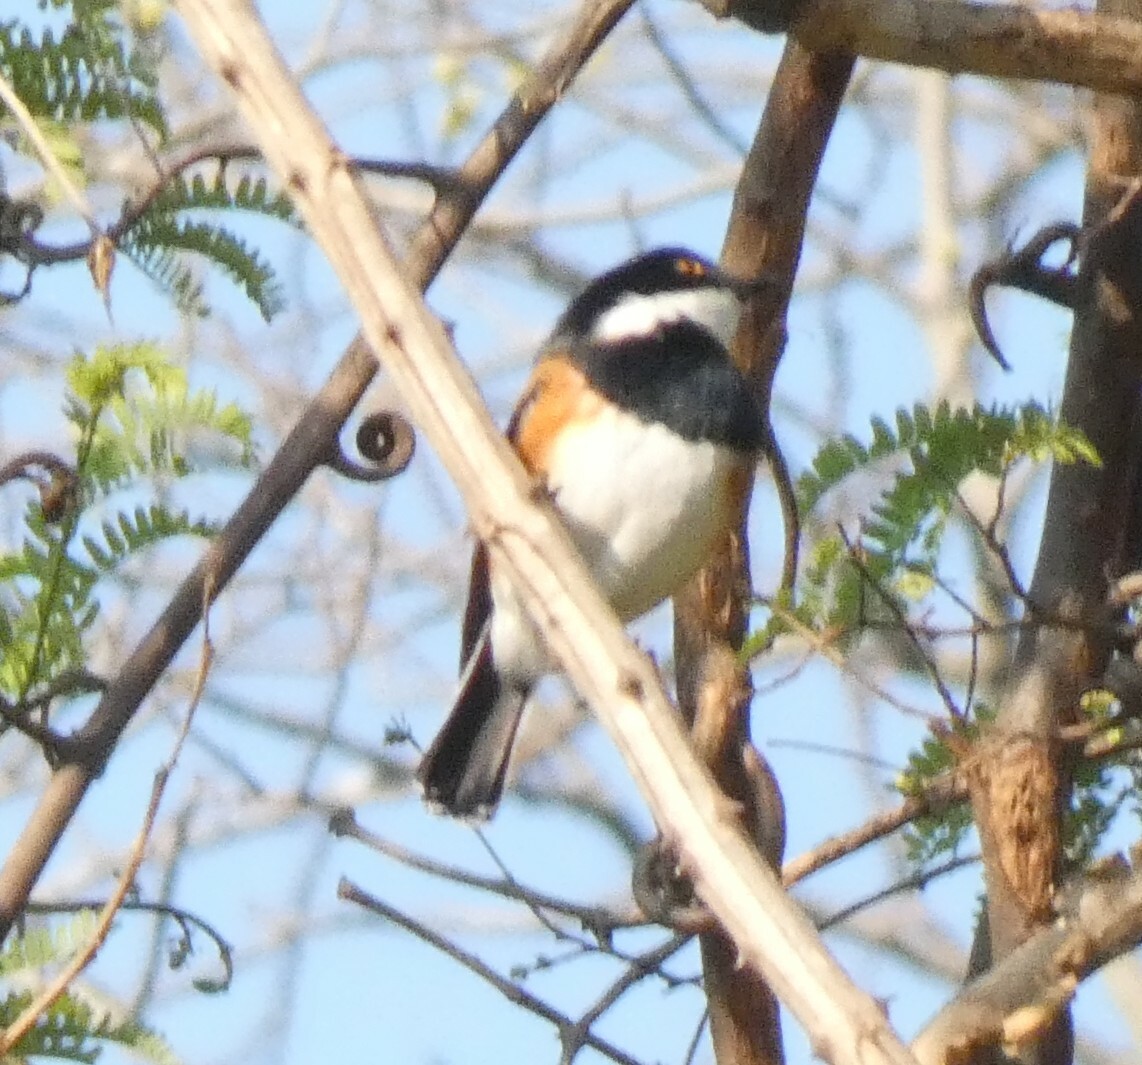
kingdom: Animalia
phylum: Chordata
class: Aves
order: Passeriformes
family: Platysteiridae
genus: Batis
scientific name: Batis capensis
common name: Cape batis
